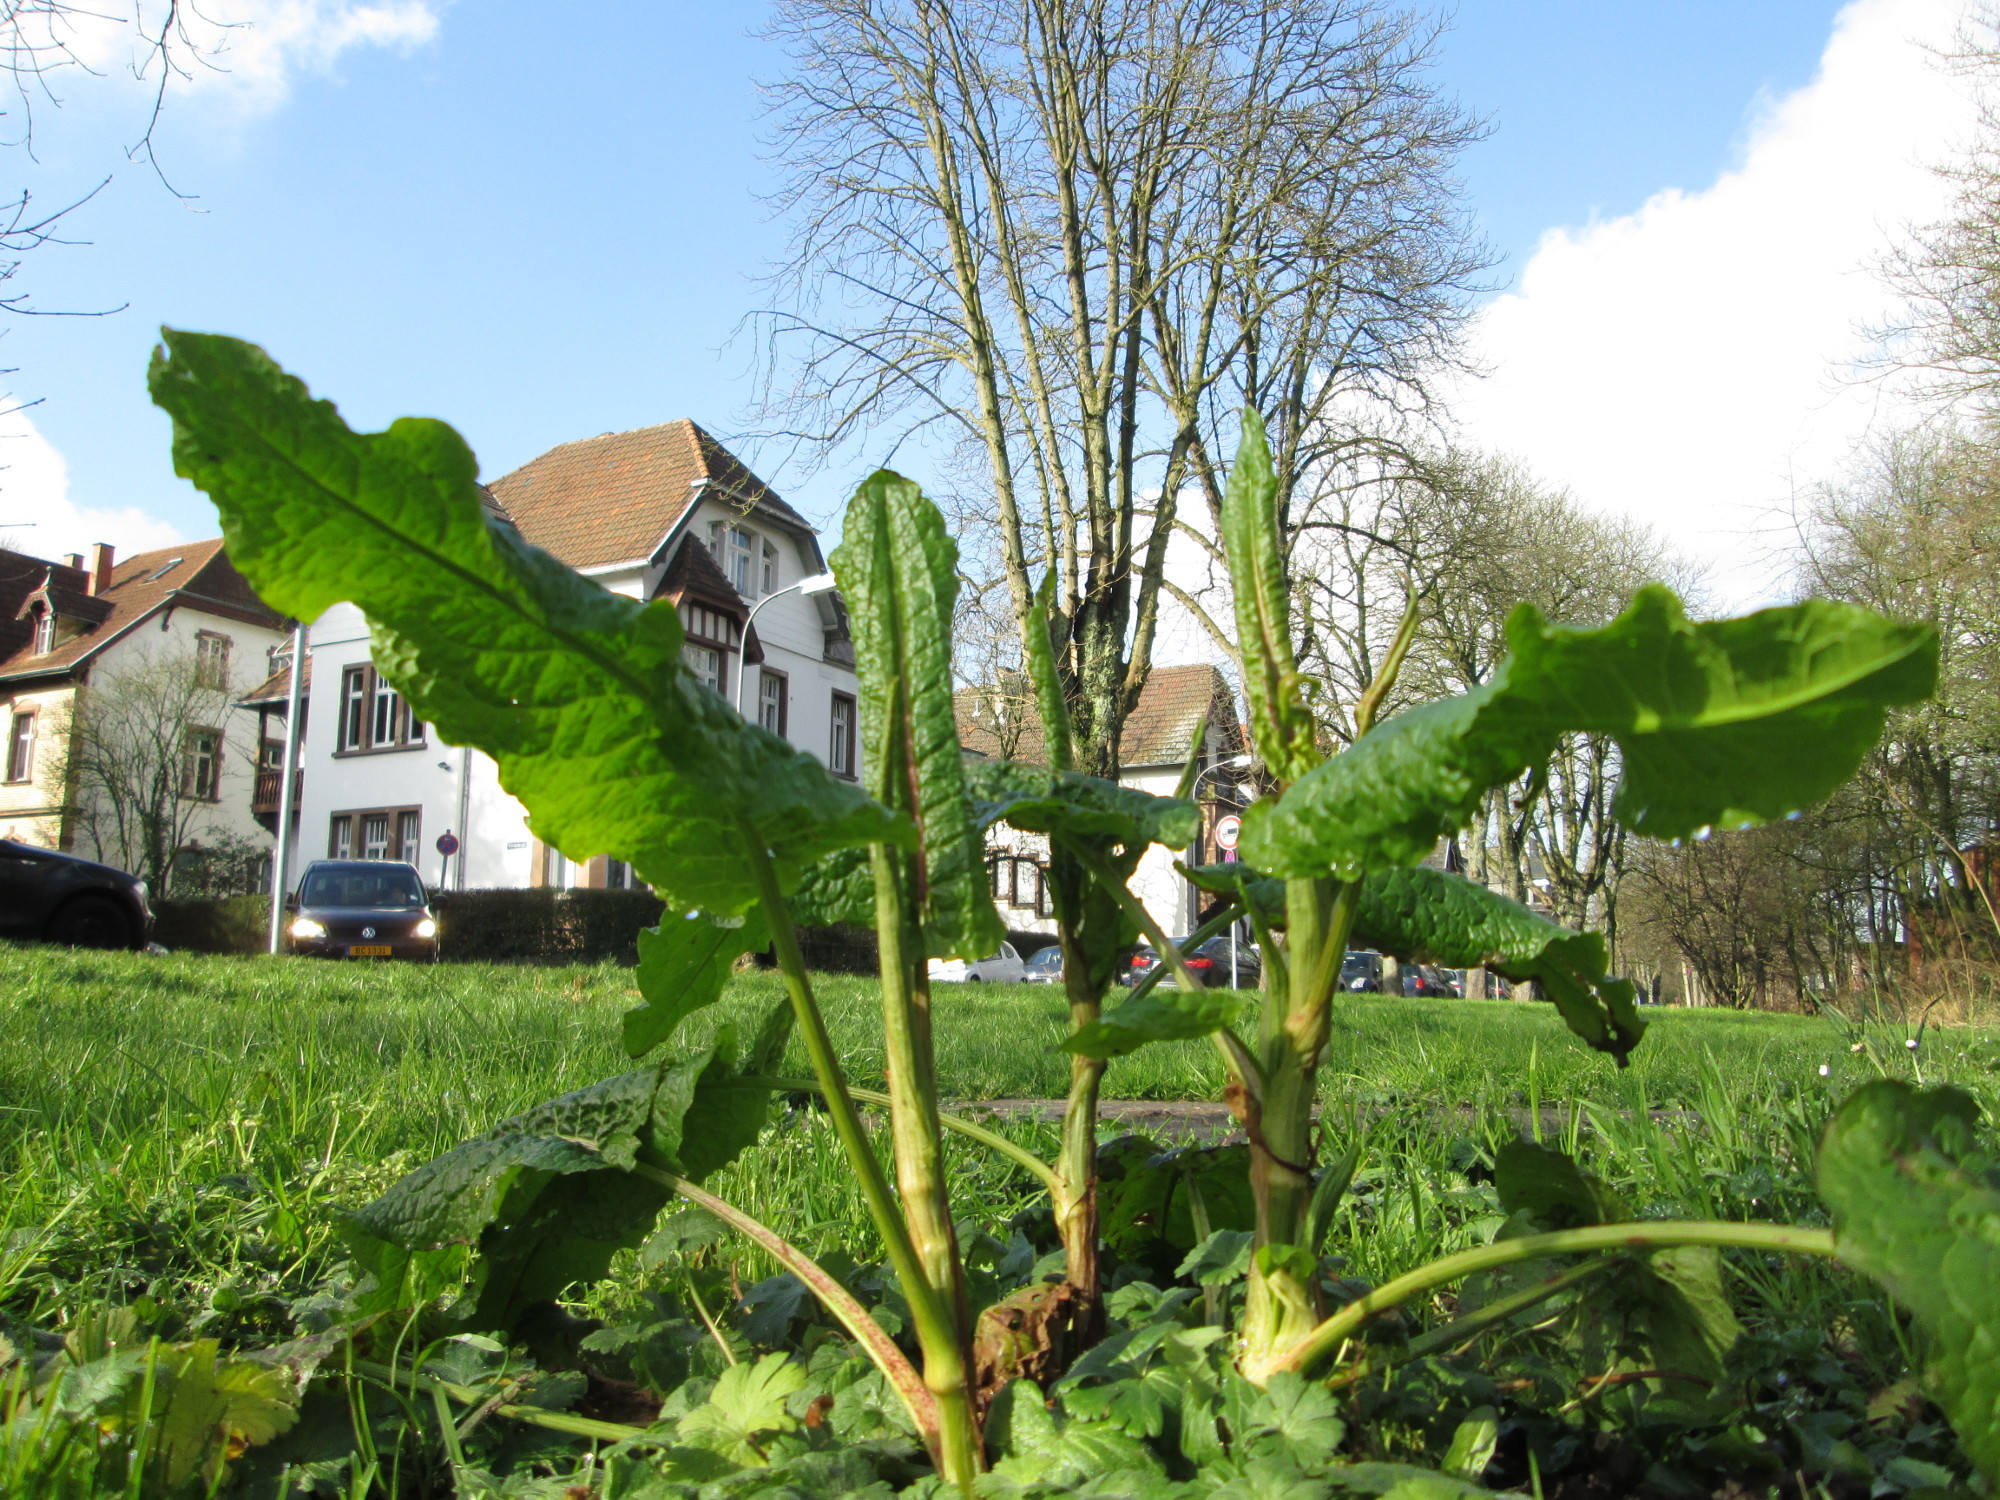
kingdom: Plantae
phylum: Tracheophyta
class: Magnoliopsida
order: Caryophyllales
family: Polygonaceae
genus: Rumex
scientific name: Rumex obtusifolius
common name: Bitter dock
